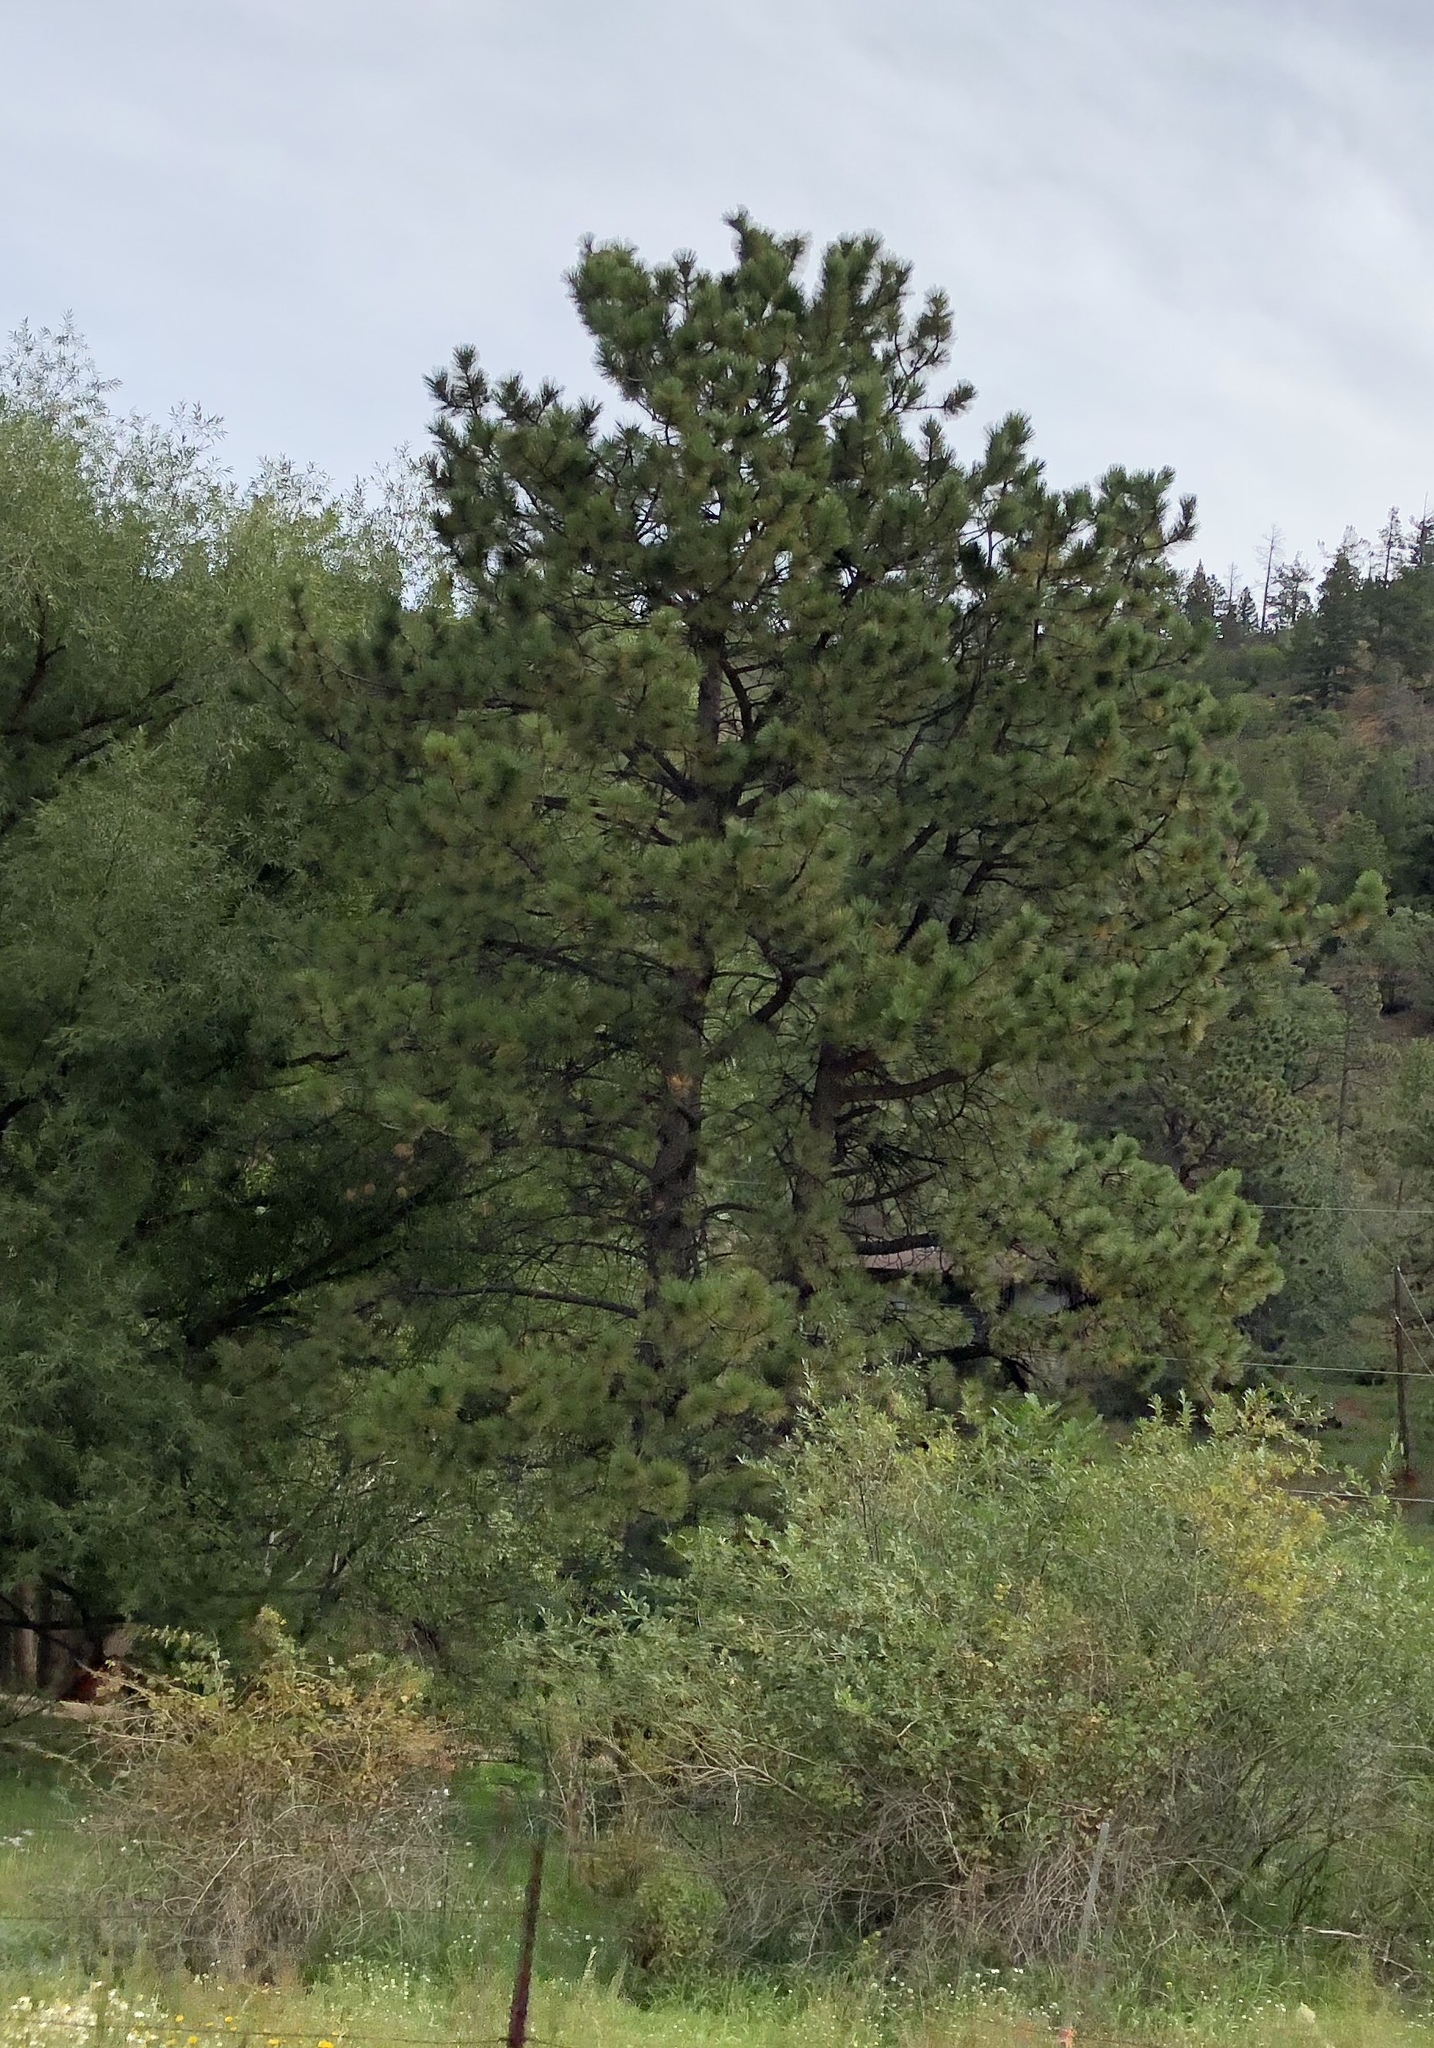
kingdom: Plantae
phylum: Tracheophyta
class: Pinopsida
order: Pinales
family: Pinaceae
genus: Pinus
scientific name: Pinus ponderosa
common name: Western yellow-pine
